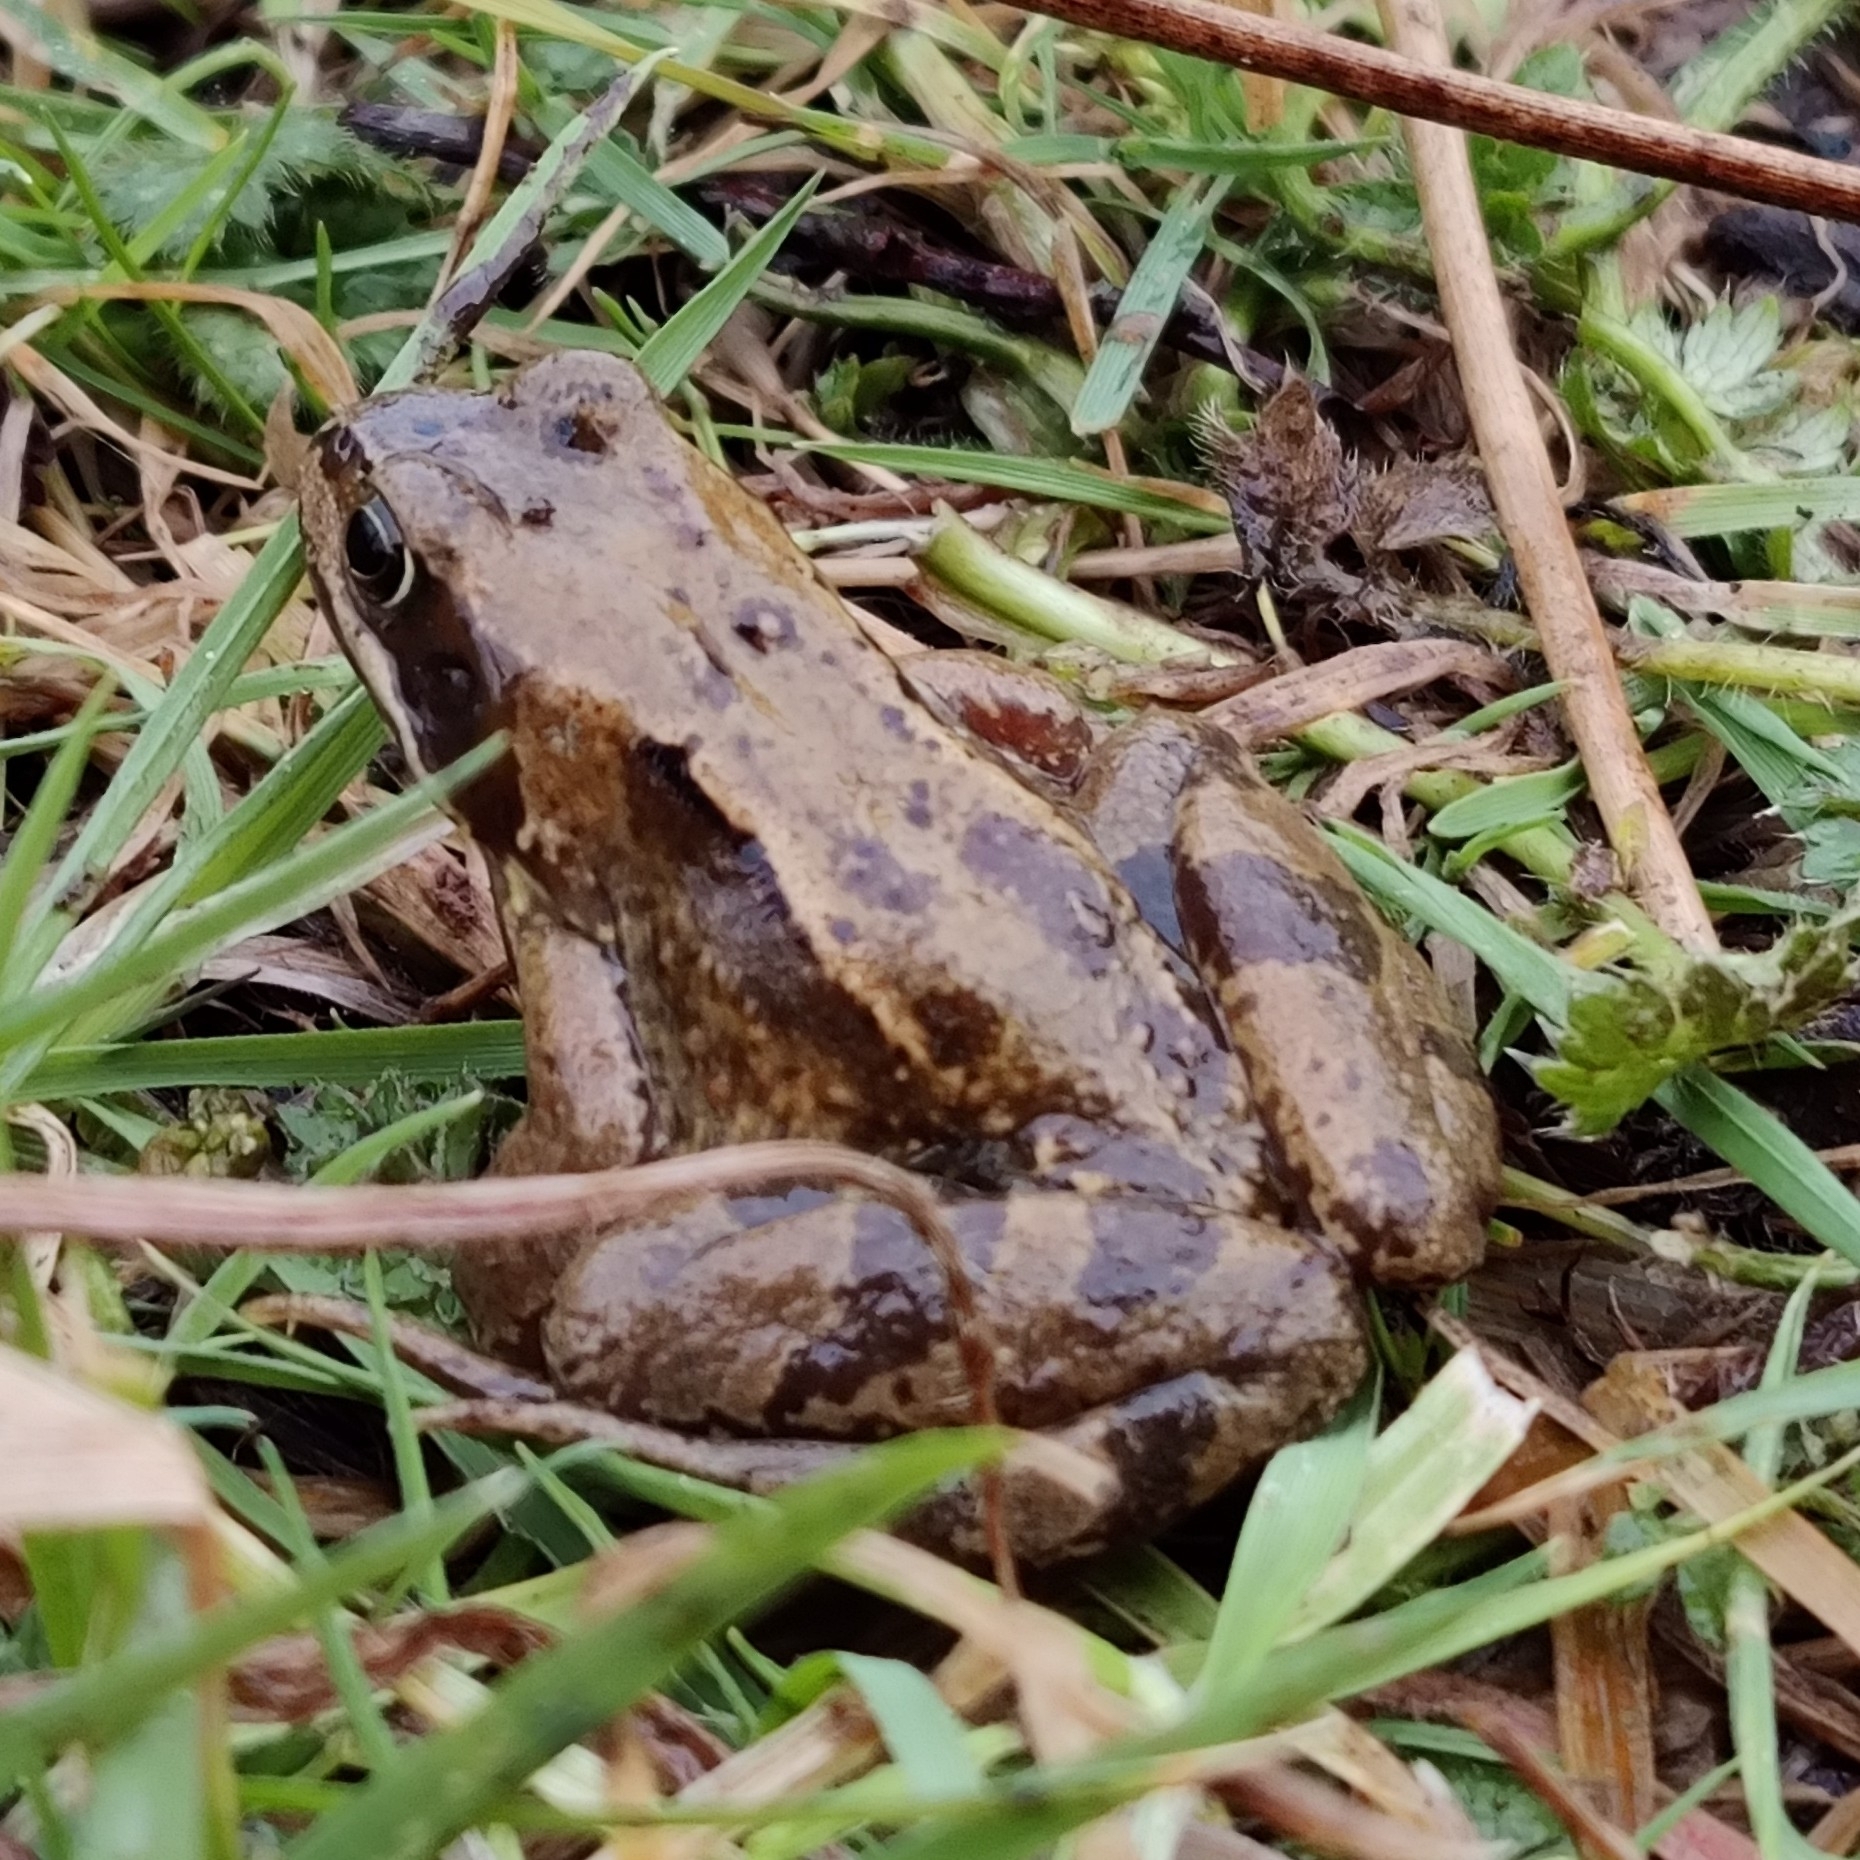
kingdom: Animalia
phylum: Chordata
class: Amphibia
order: Anura
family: Ranidae
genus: Rana
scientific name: Rana temporaria
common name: Common frog
